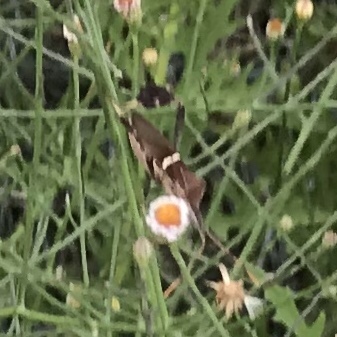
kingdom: Animalia
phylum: Arthropoda
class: Insecta
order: Hemiptera
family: Coreidae
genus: Leptoglossus
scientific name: Leptoglossus phyllopus
